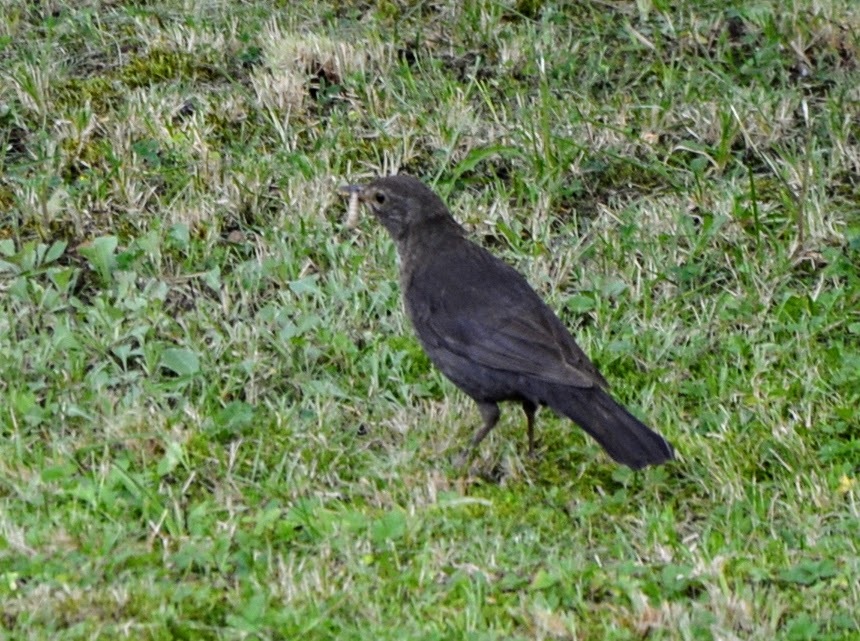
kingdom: Animalia
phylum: Chordata
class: Aves
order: Passeriformes
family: Turdidae
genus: Turdus
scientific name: Turdus merula
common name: Common blackbird
